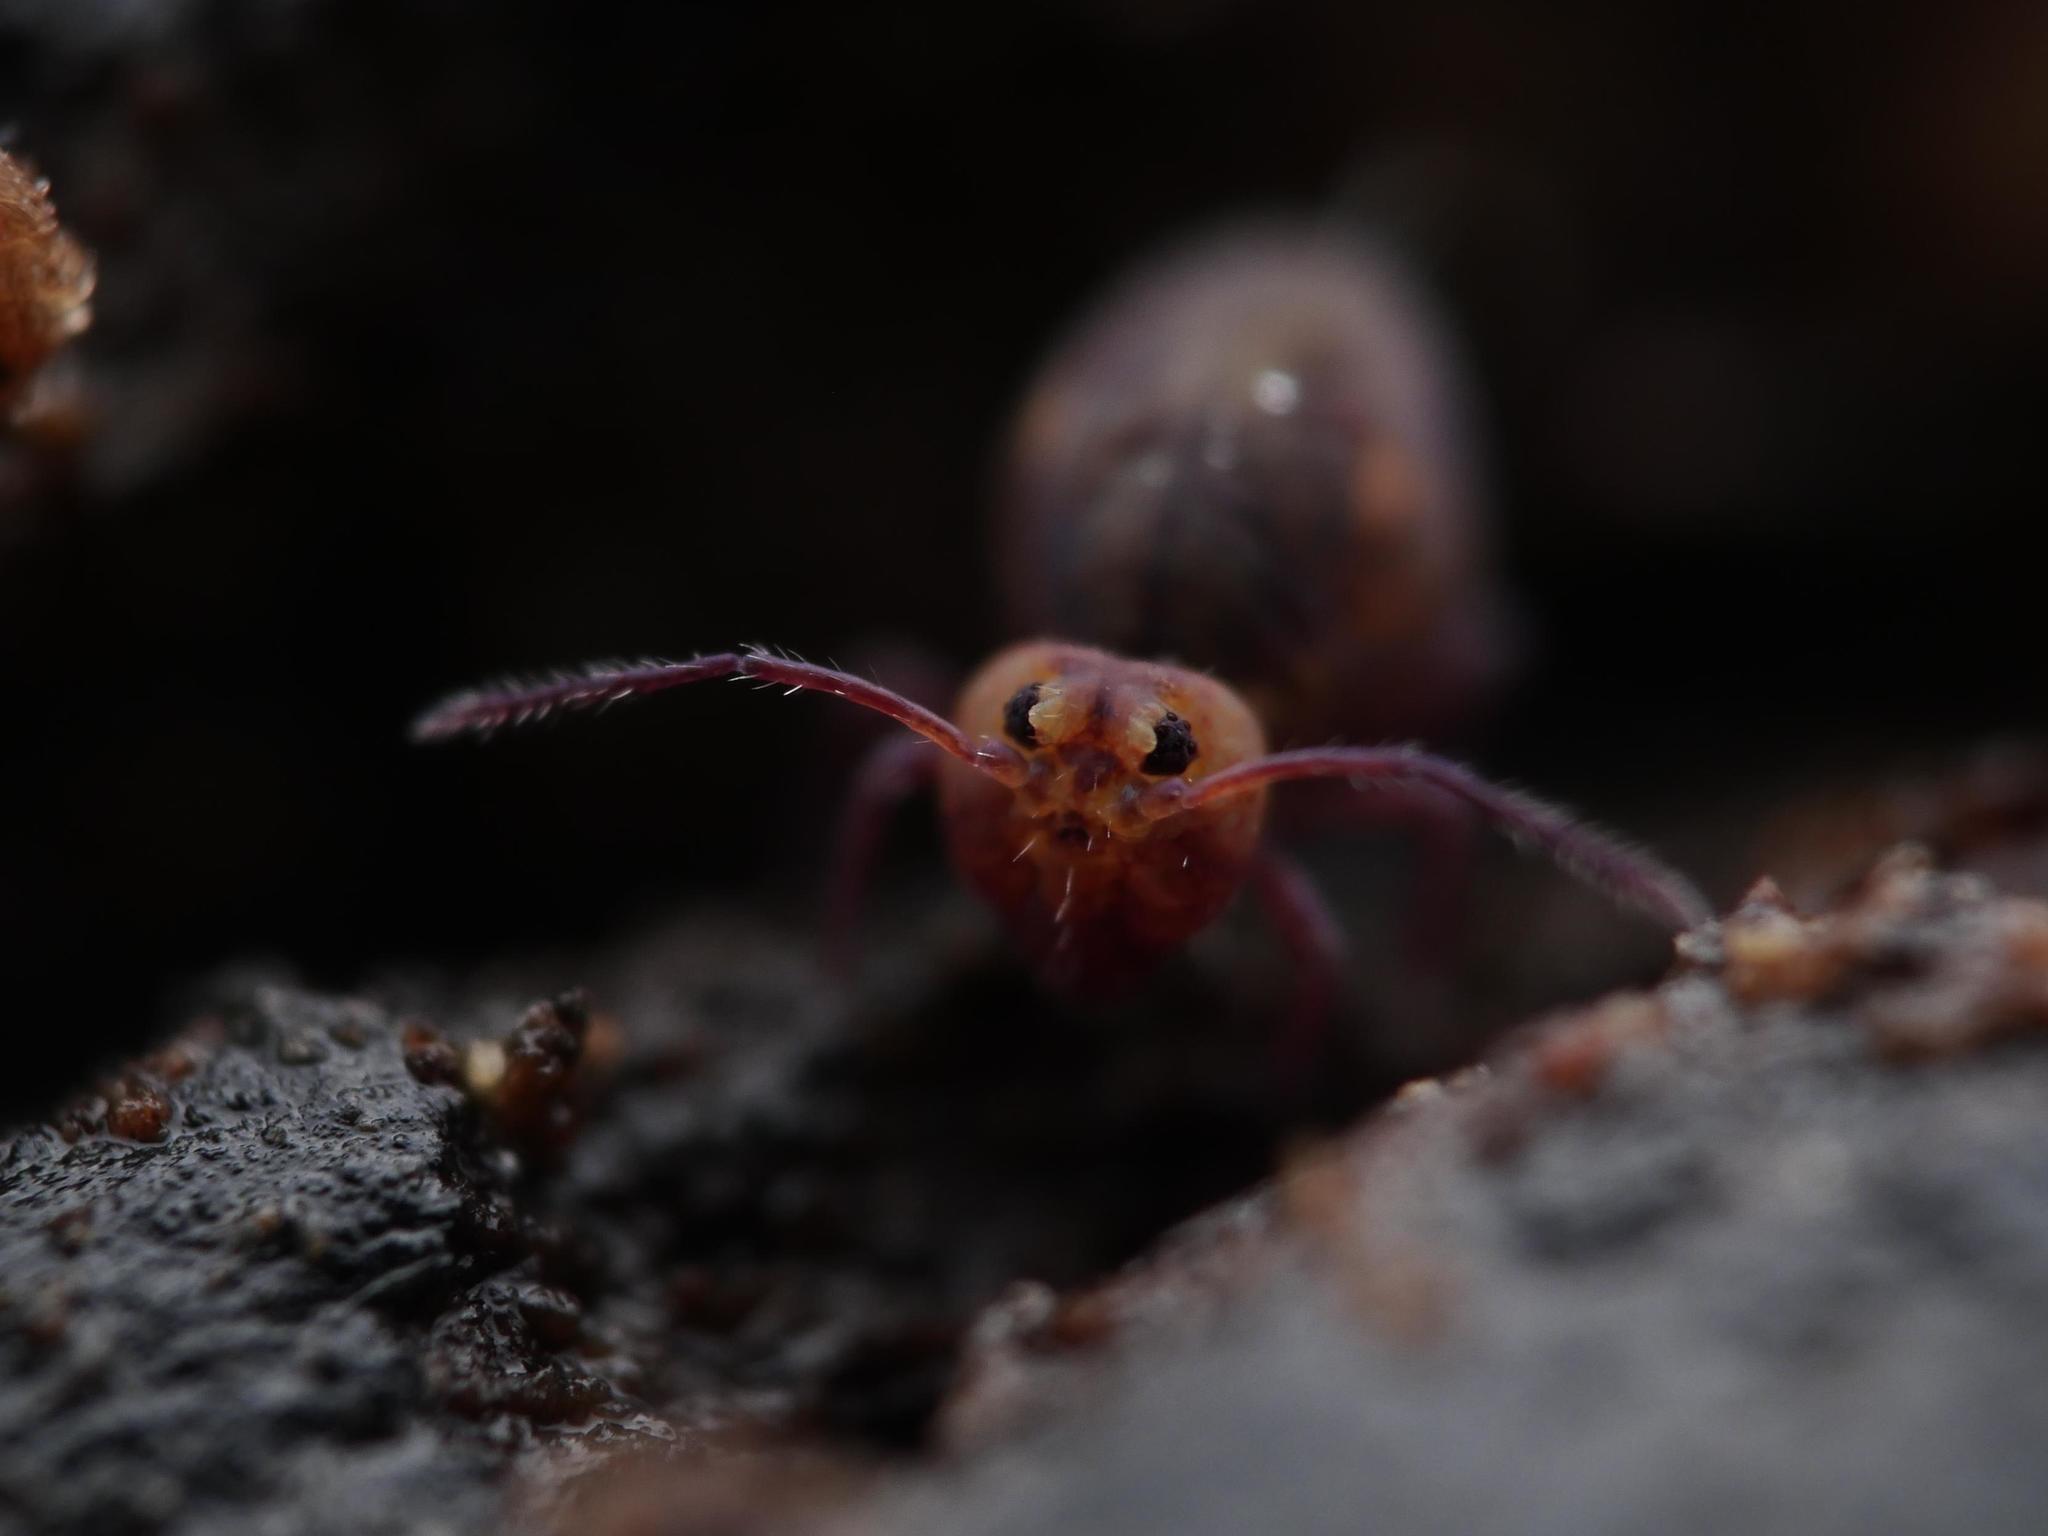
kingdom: Animalia
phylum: Arthropoda
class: Collembola
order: Symphypleona
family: Dicyrtomidae
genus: Dicyrtoma
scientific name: Dicyrtoma fusca
